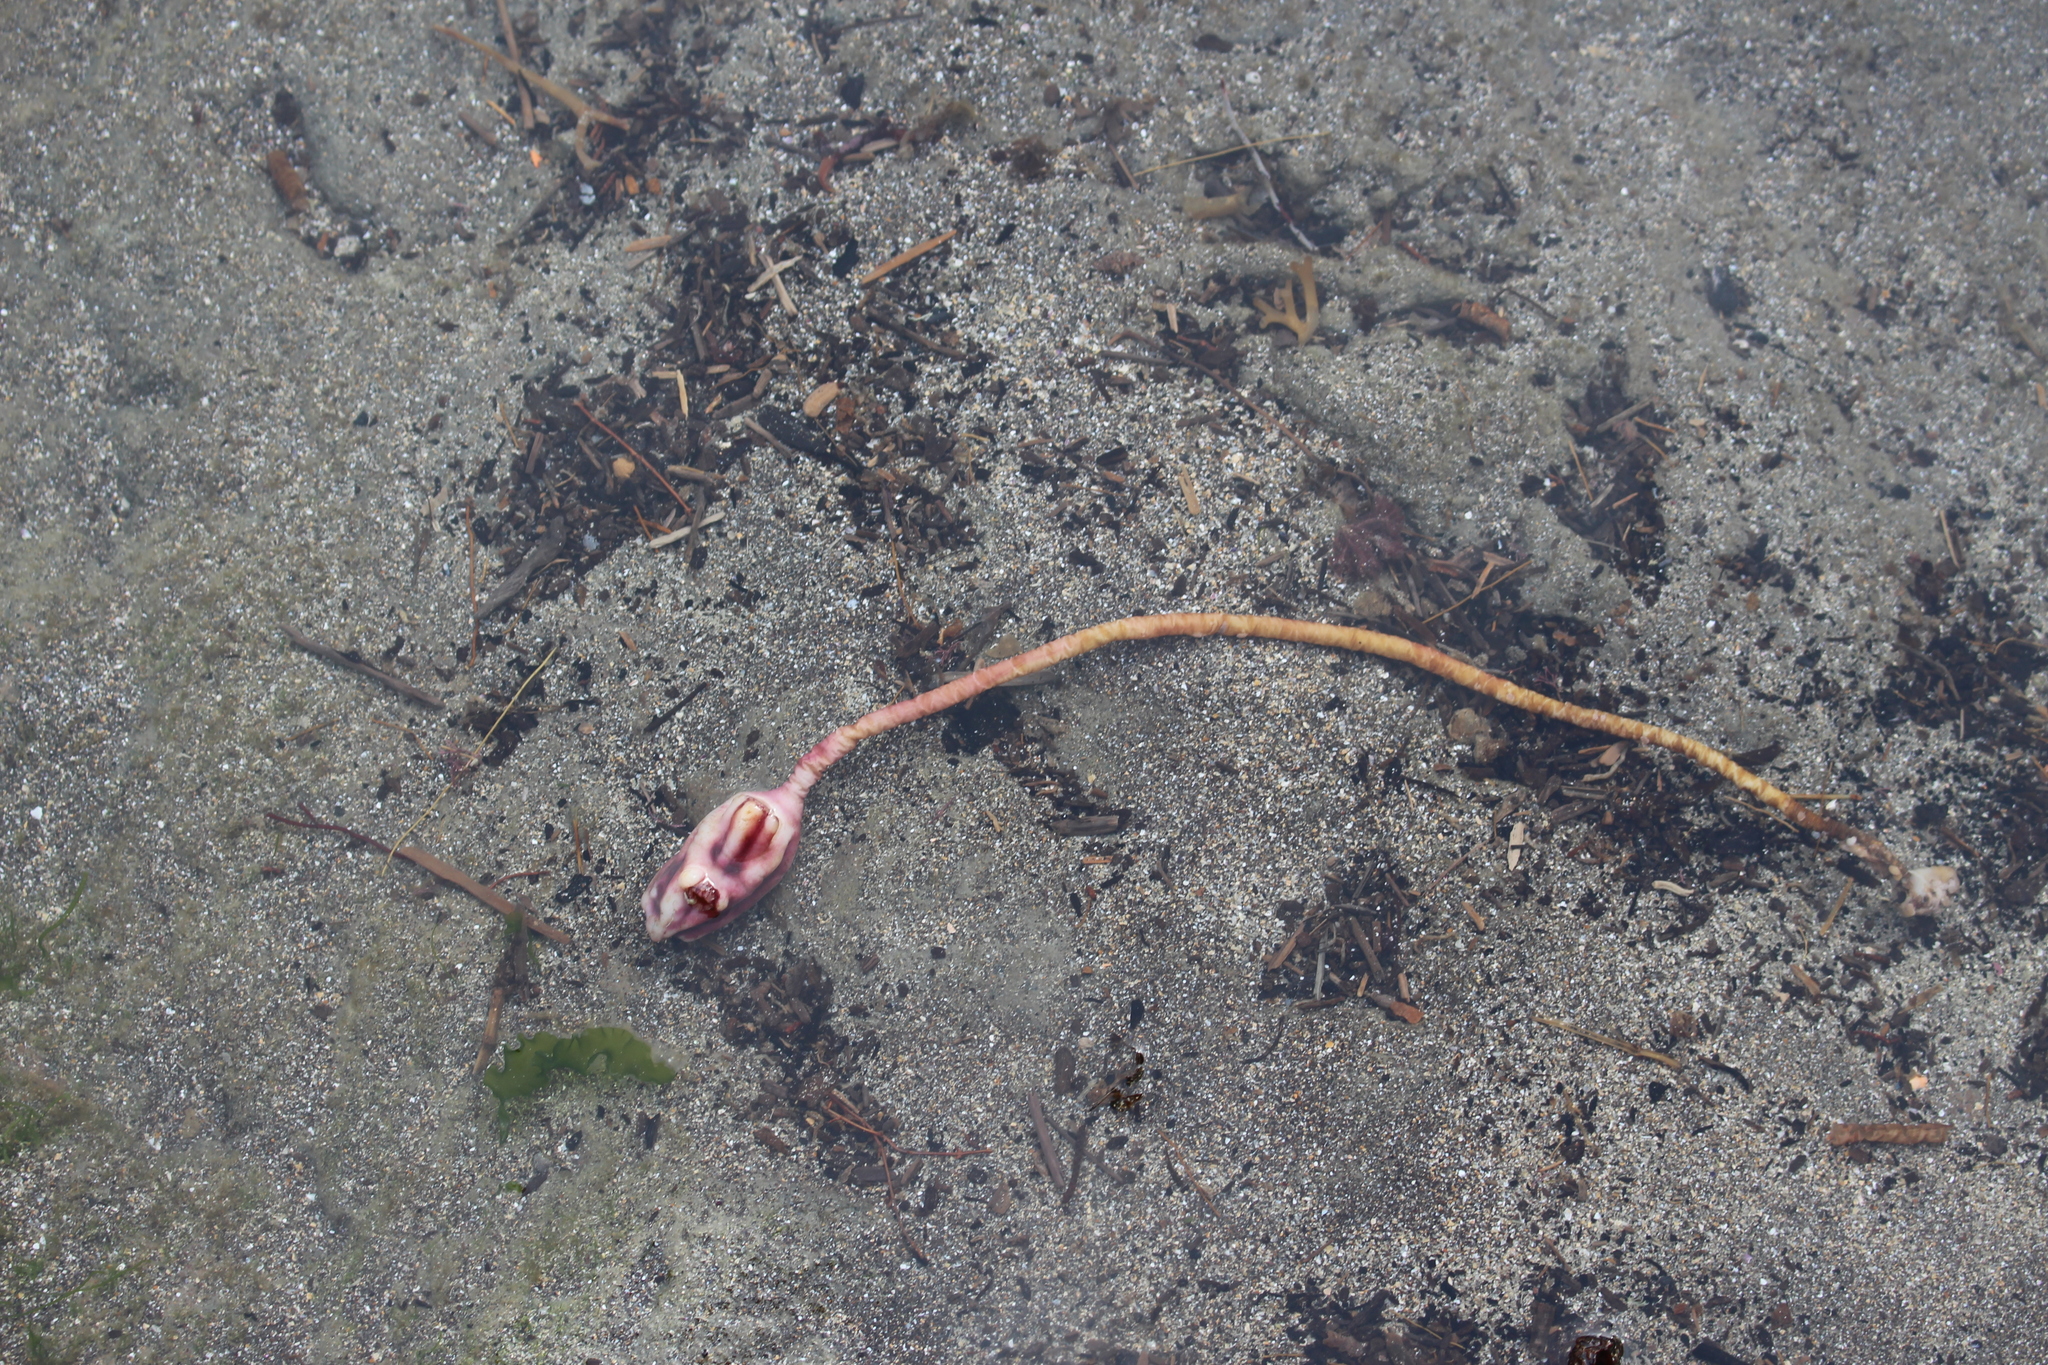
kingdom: Animalia
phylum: Chordata
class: Ascidiacea
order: Stolidobranchia
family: Pyuridae
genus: Pyura
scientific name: Pyura pachydermatina
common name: Sea tulip
